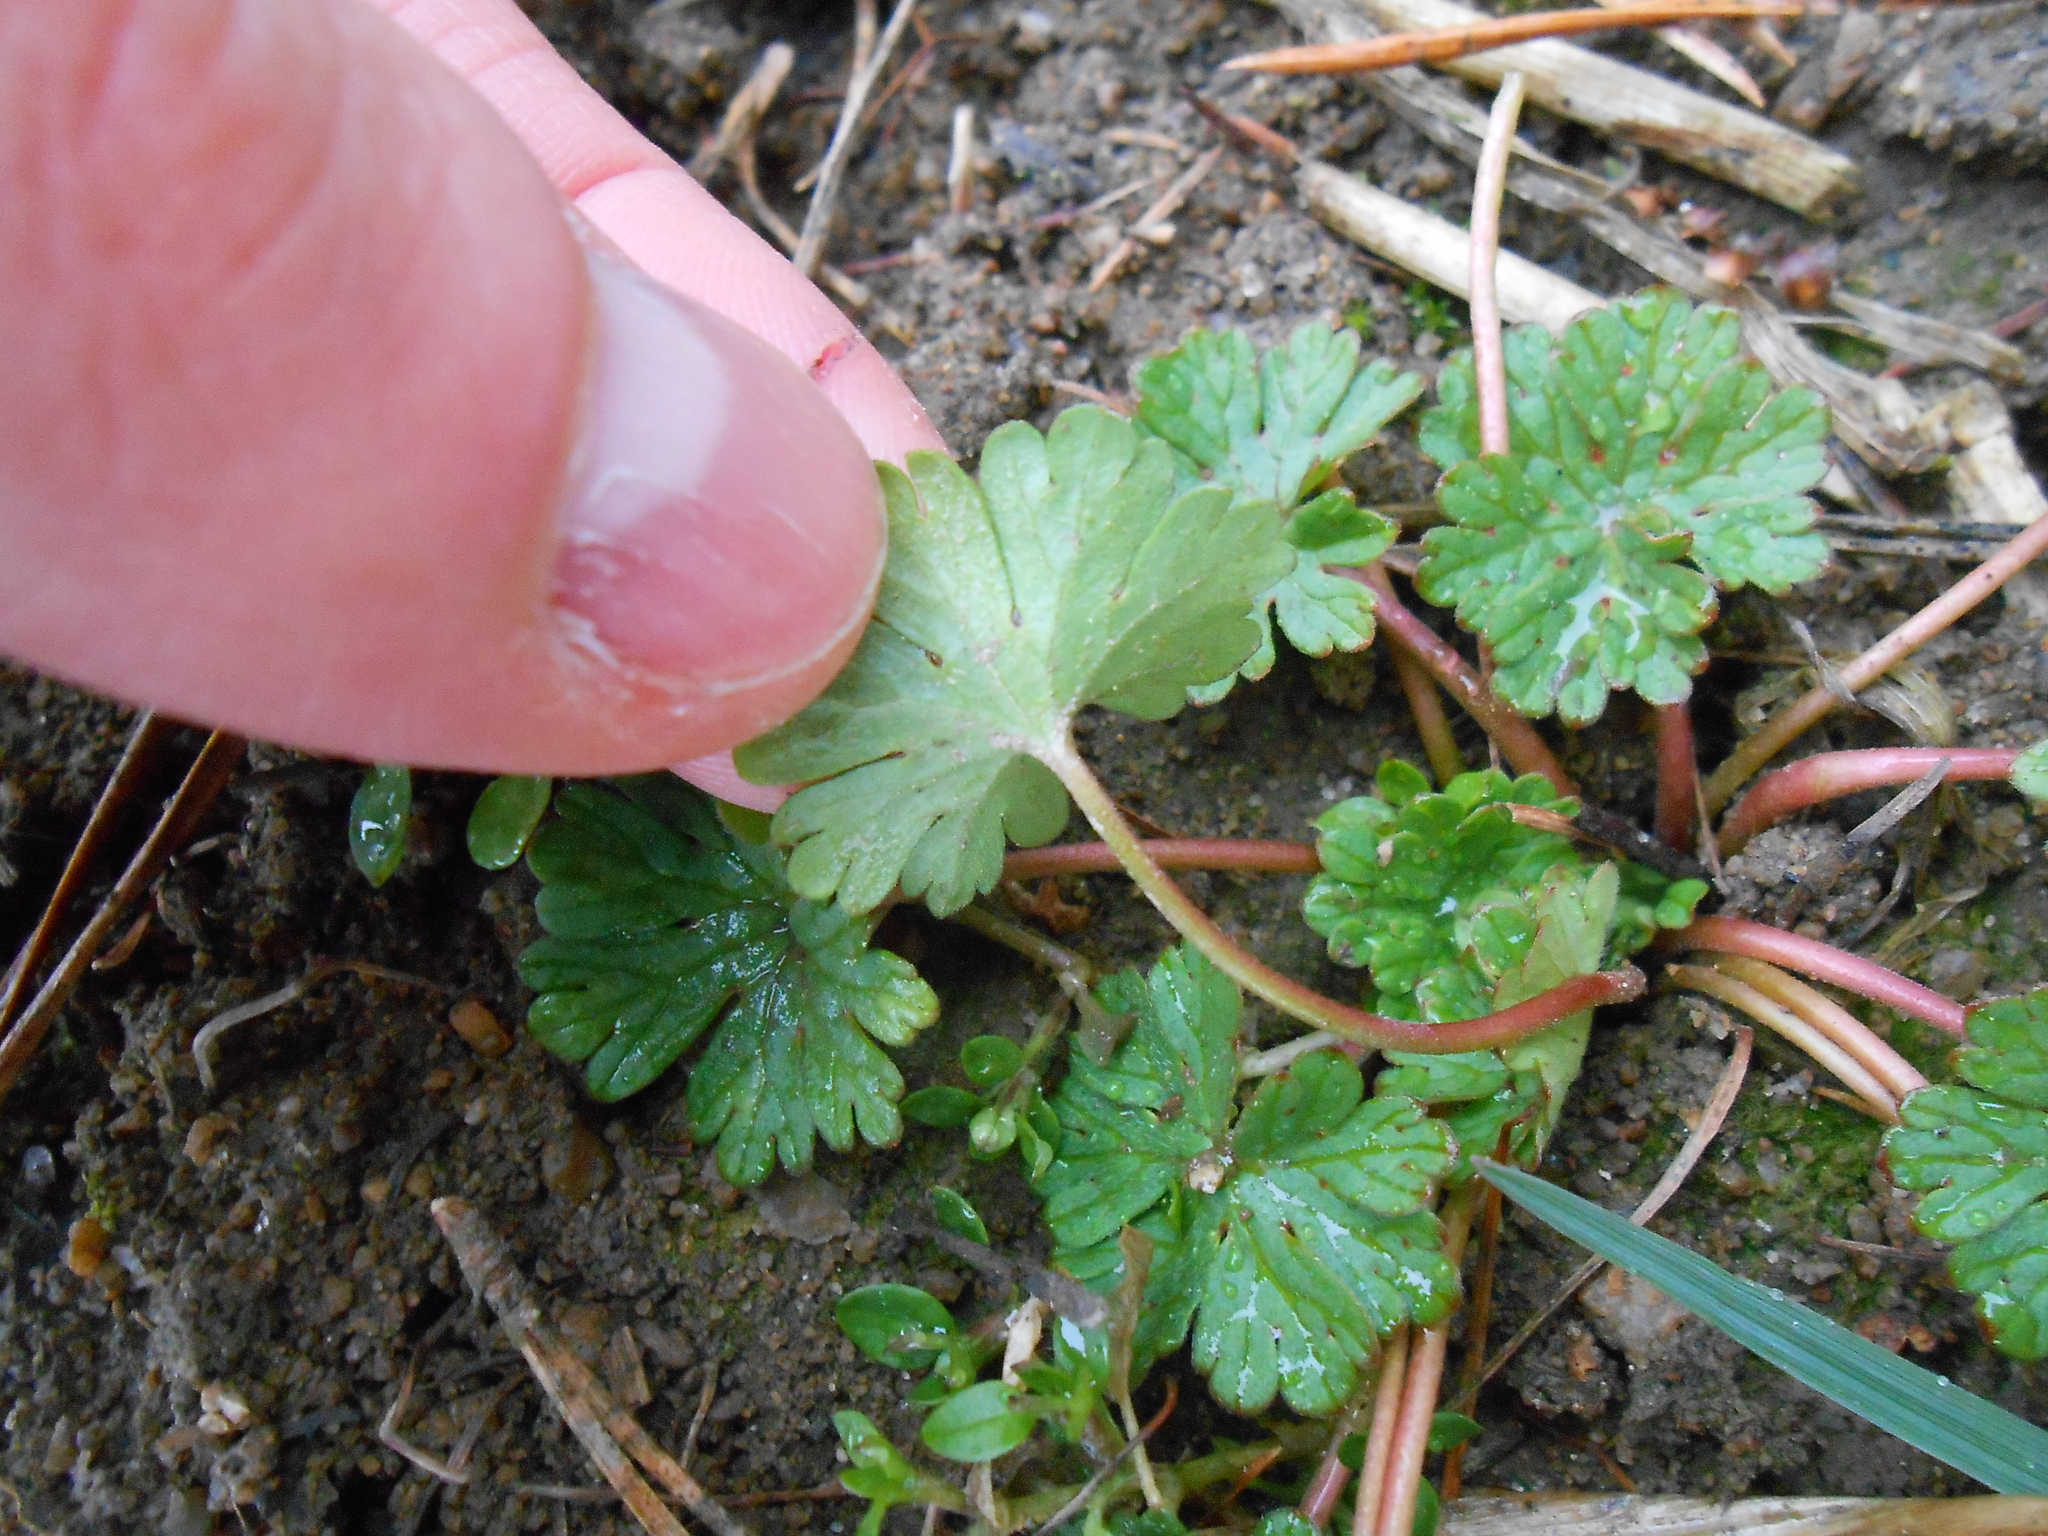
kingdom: Plantae
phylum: Tracheophyta
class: Magnoliopsida
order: Geraniales
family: Geraniaceae
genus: Geranium
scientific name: Geranium pusillum
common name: Small geranium
